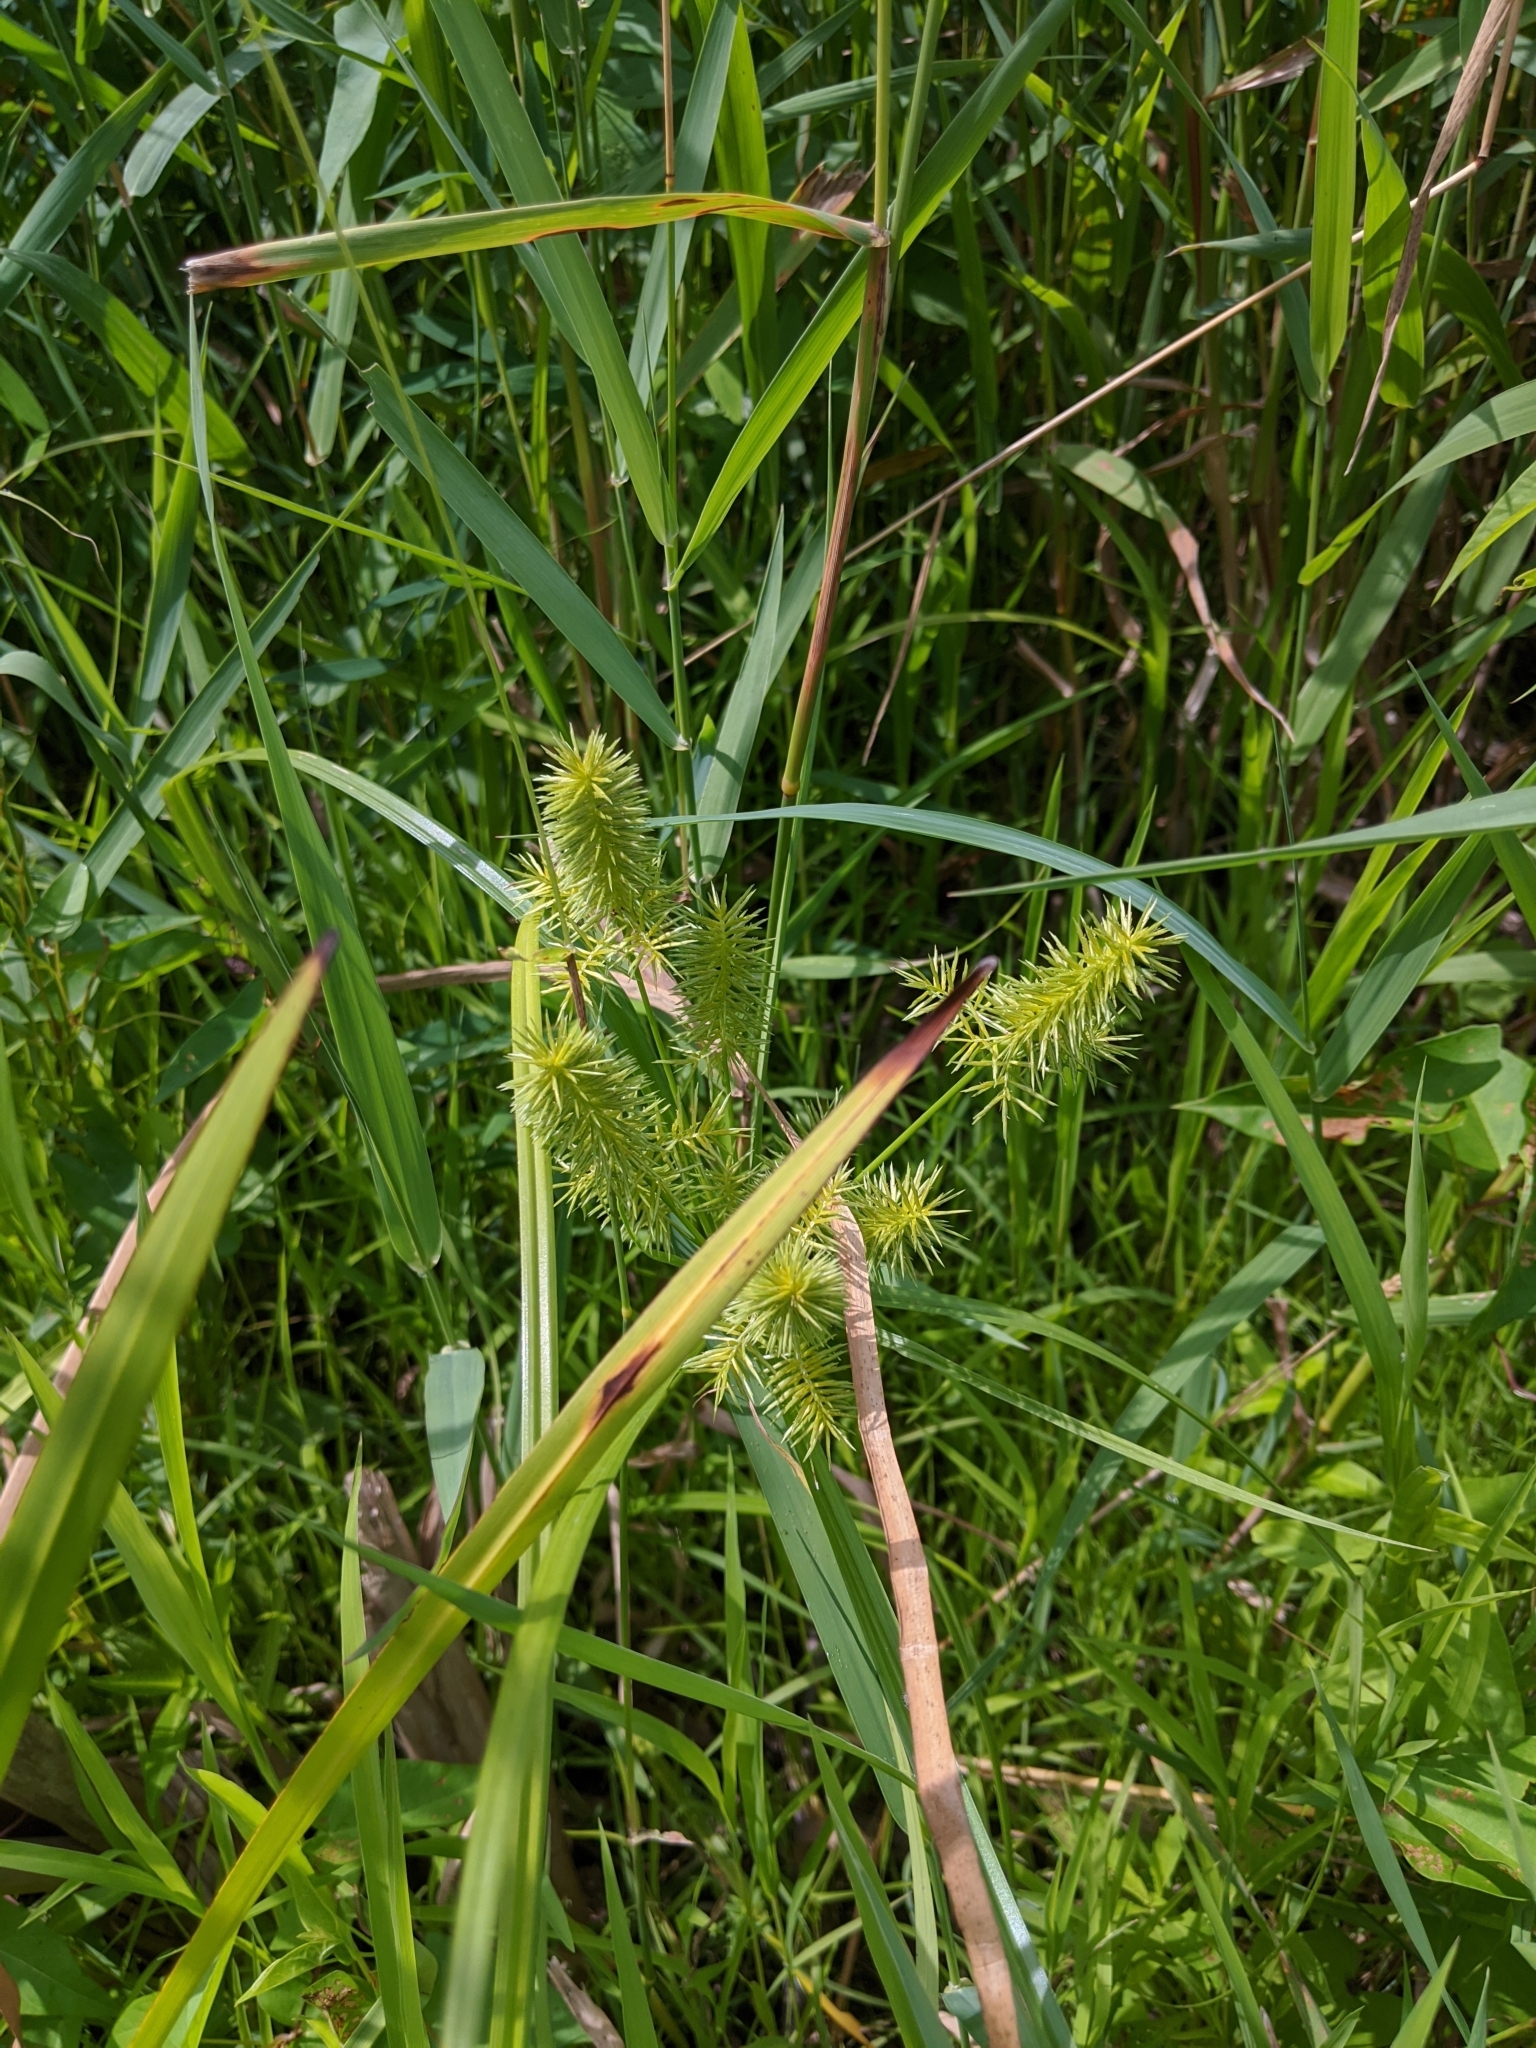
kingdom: Plantae
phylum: Tracheophyta
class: Liliopsida
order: Poales
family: Cyperaceae
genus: Cyperus
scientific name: Cyperus strigosus
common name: False nutsedge
